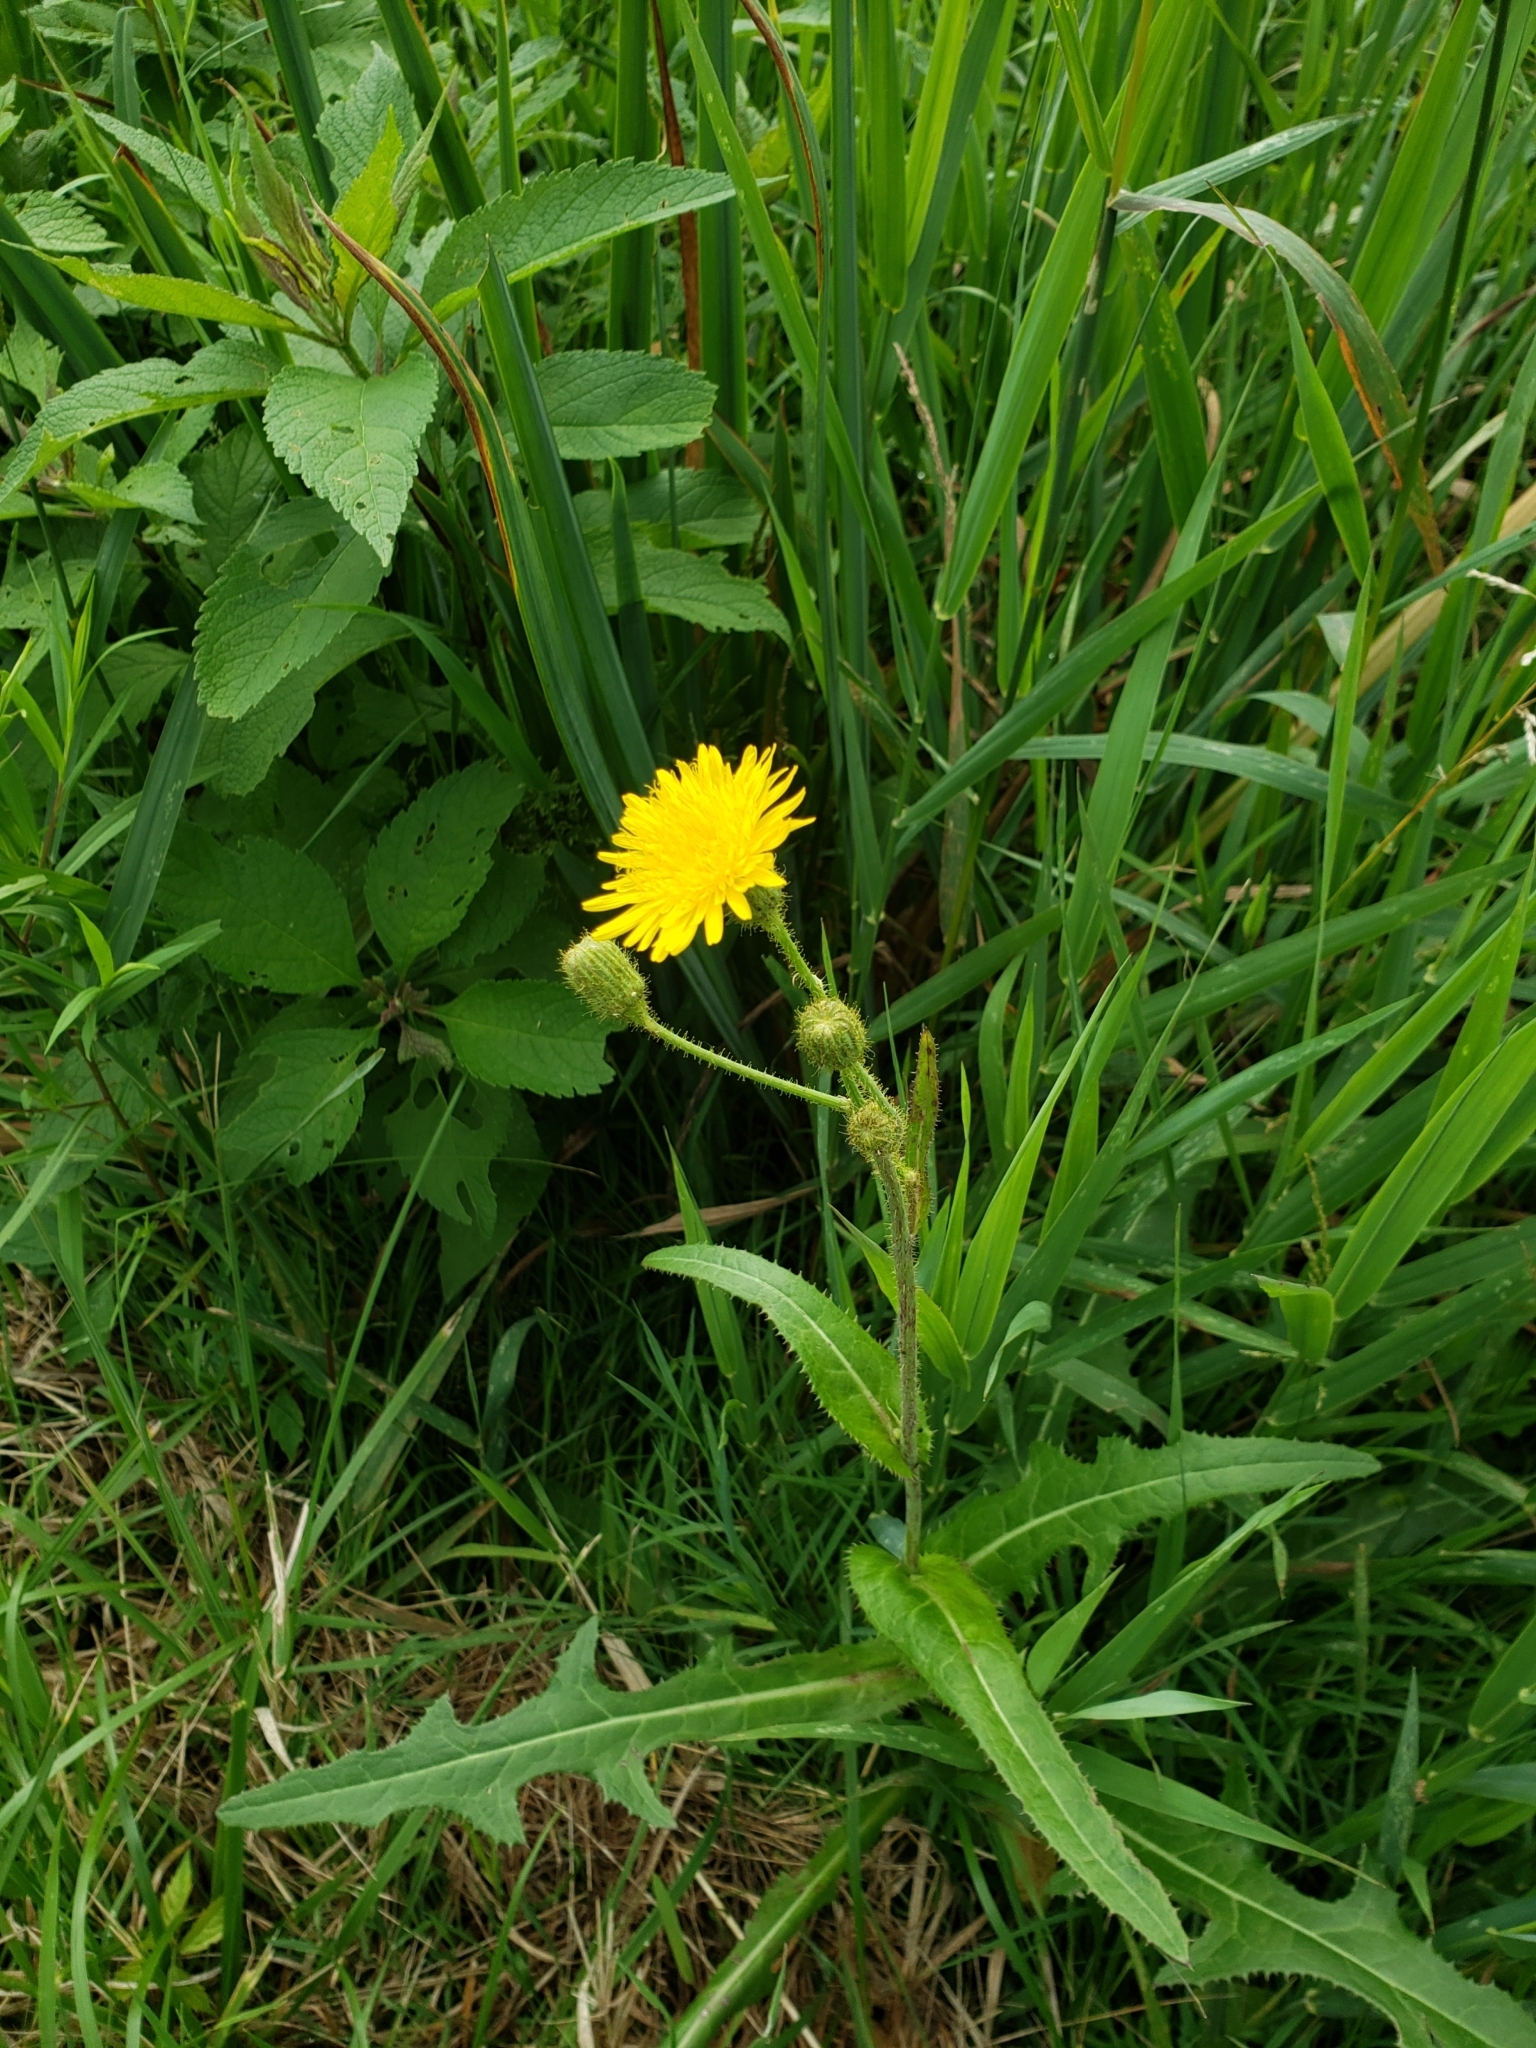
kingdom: Plantae
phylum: Tracheophyta
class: Magnoliopsida
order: Asterales
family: Asteraceae
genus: Sonchus
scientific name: Sonchus arvensis
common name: Perennial sow-thistle
